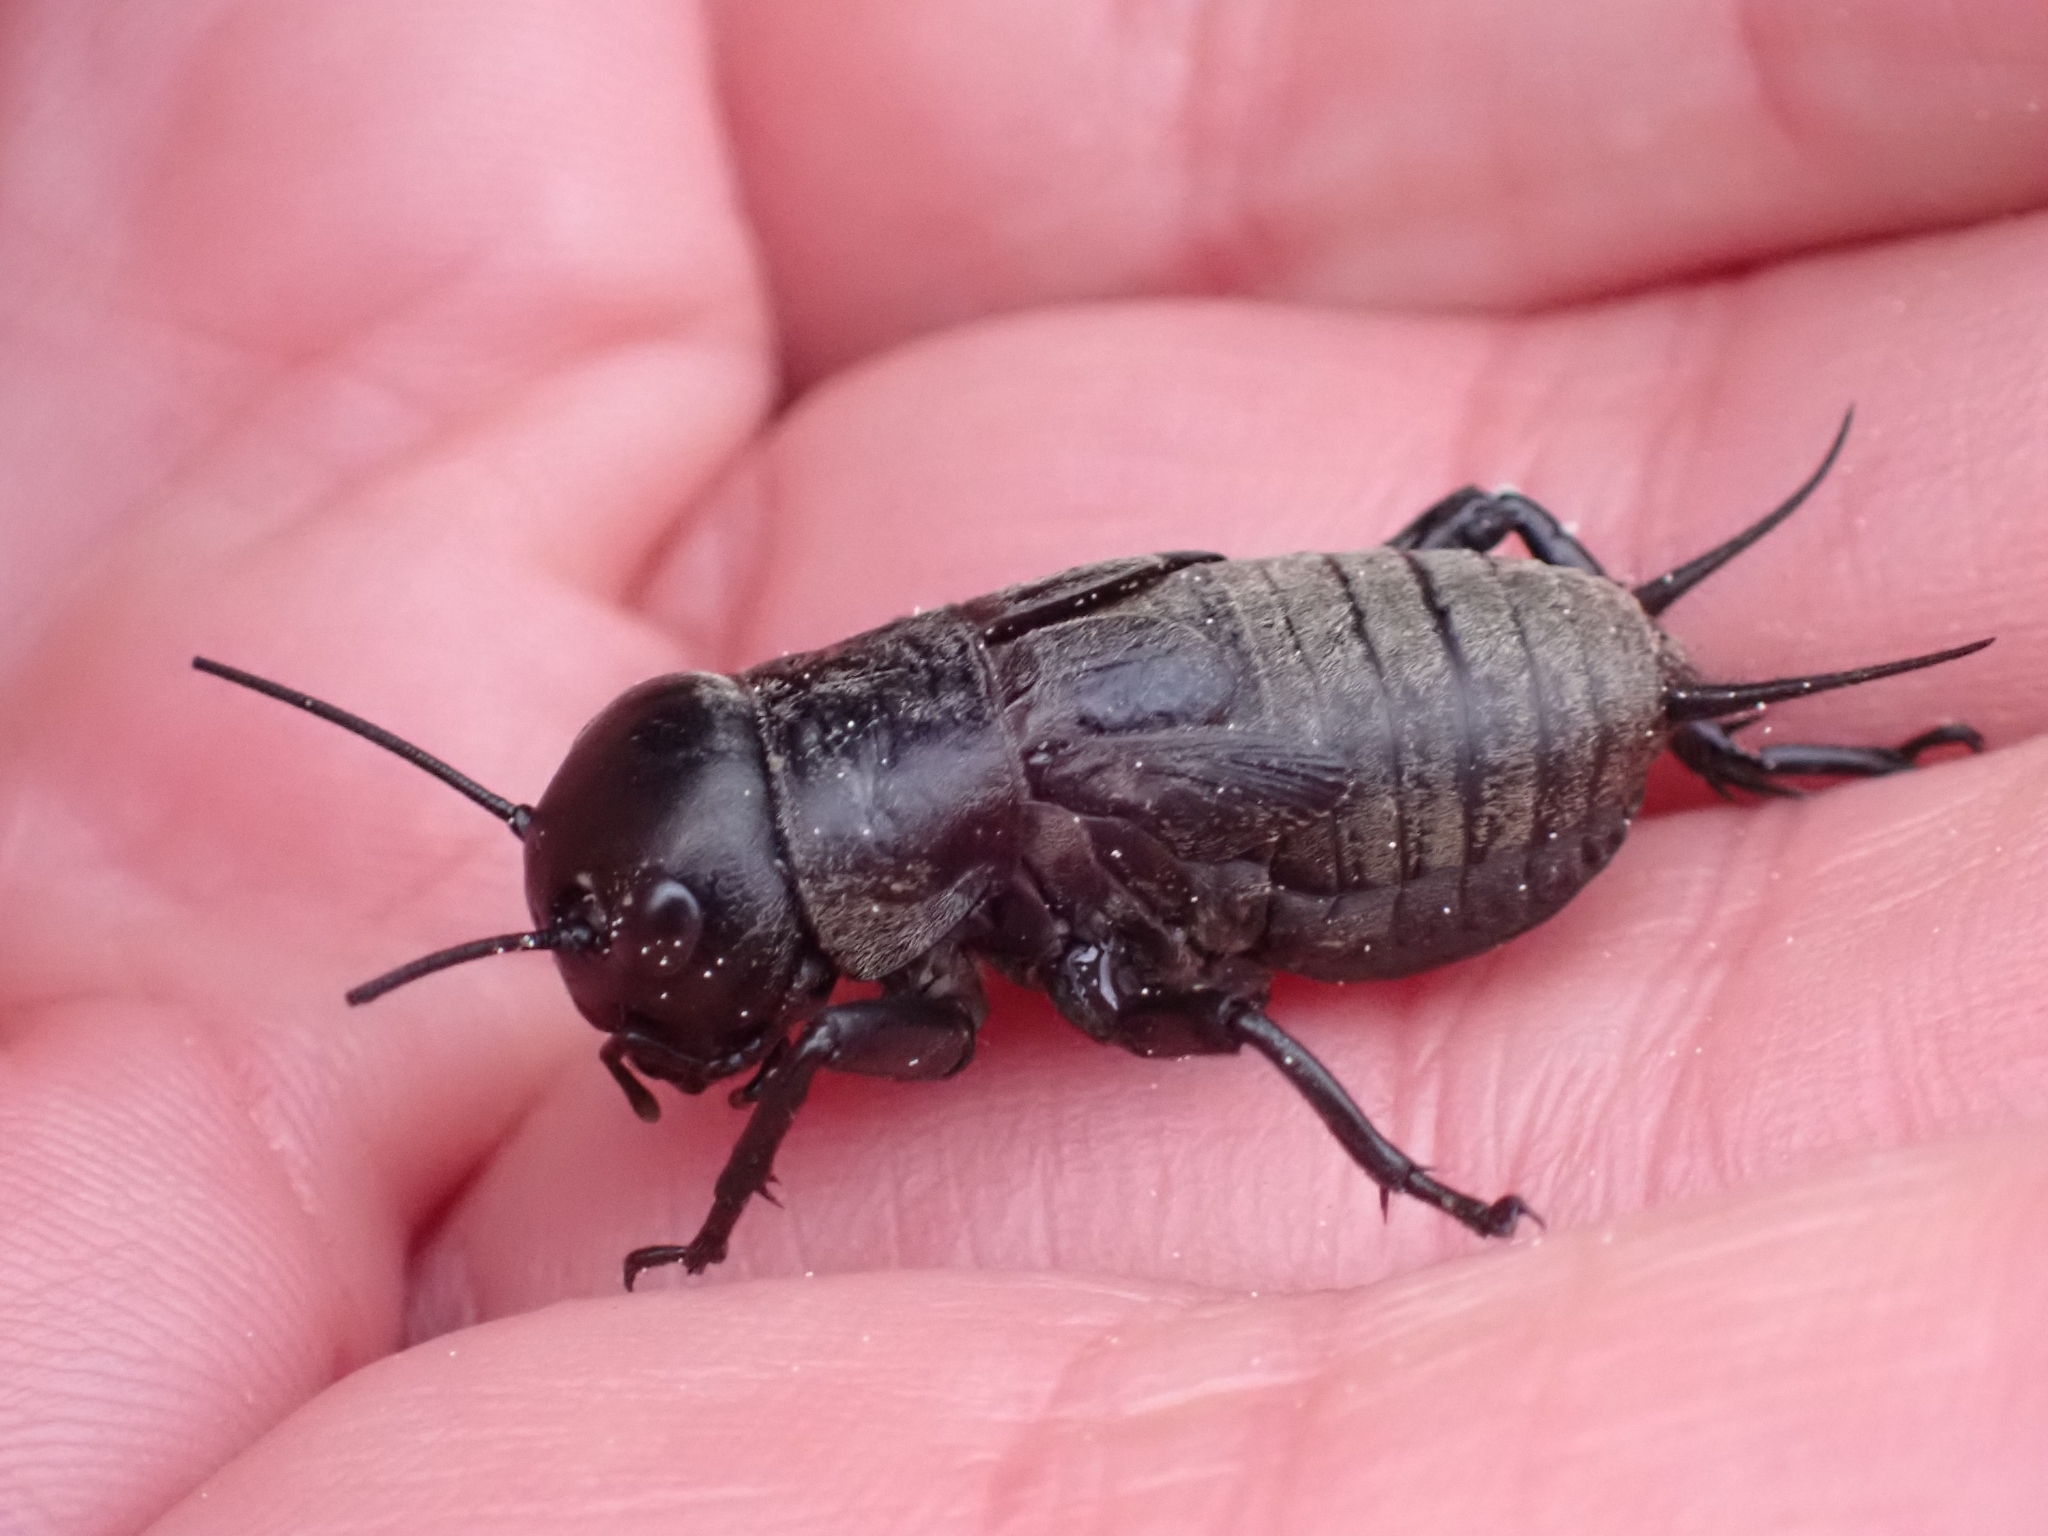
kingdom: Animalia
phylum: Arthropoda
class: Insecta
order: Orthoptera
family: Gryllidae
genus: Gryllus
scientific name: Gryllus campestris
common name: Field cricket
